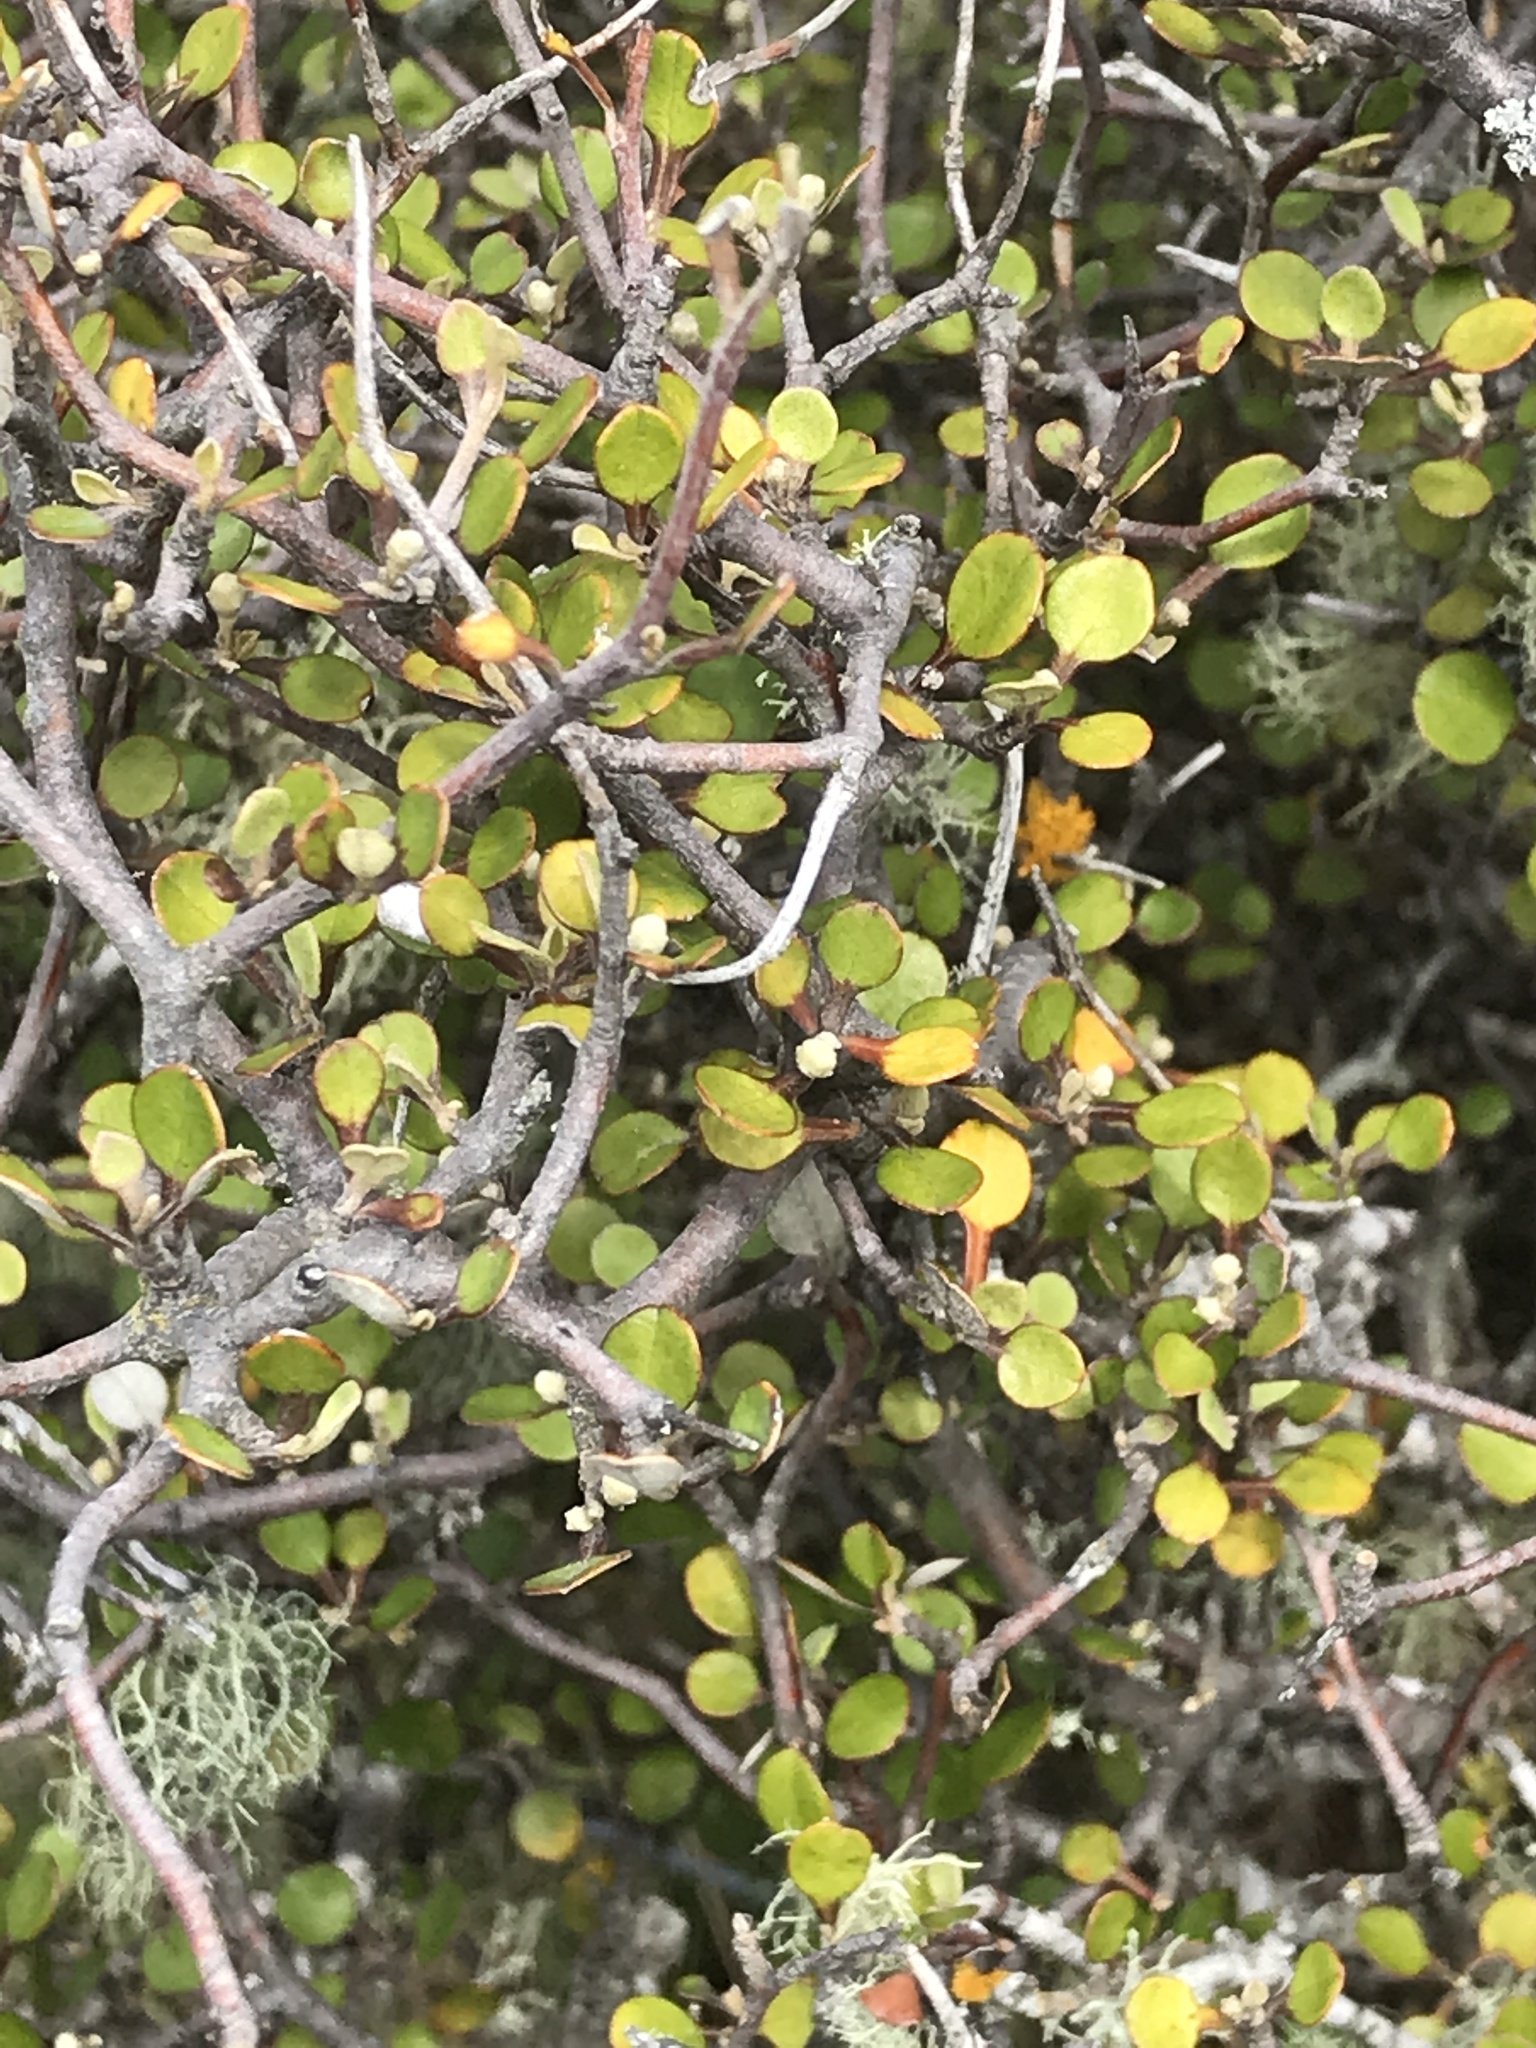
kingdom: Plantae
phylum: Tracheophyta
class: Magnoliopsida
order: Asterales
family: Argophyllaceae
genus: Corokia
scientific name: Corokia cotoneaster
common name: Wire nettingbush
